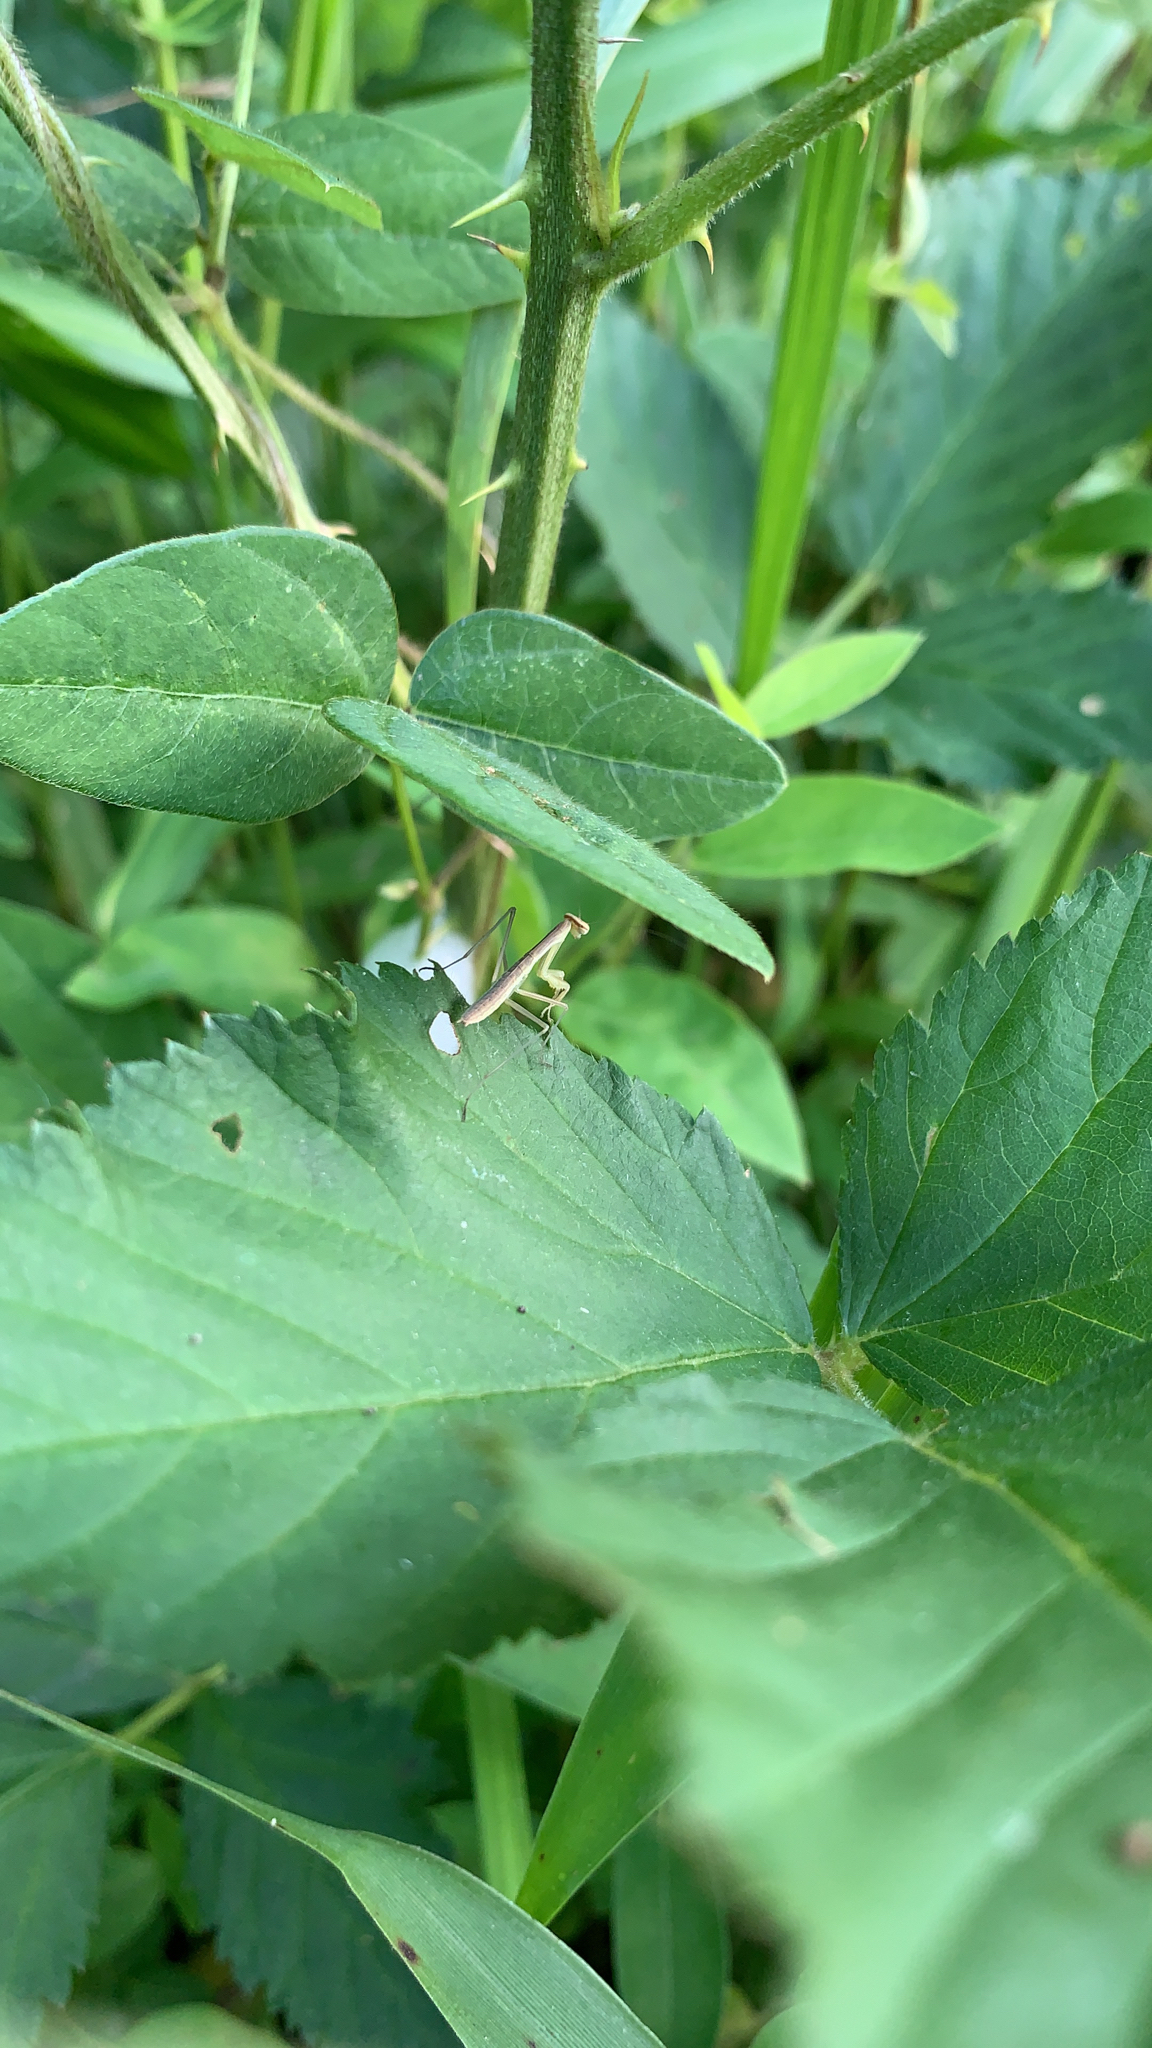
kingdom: Animalia
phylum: Arthropoda
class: Insecta
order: Mantodea
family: Mantidae
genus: Tenodera
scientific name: Tenodera sinensis
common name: Chinese mantis
